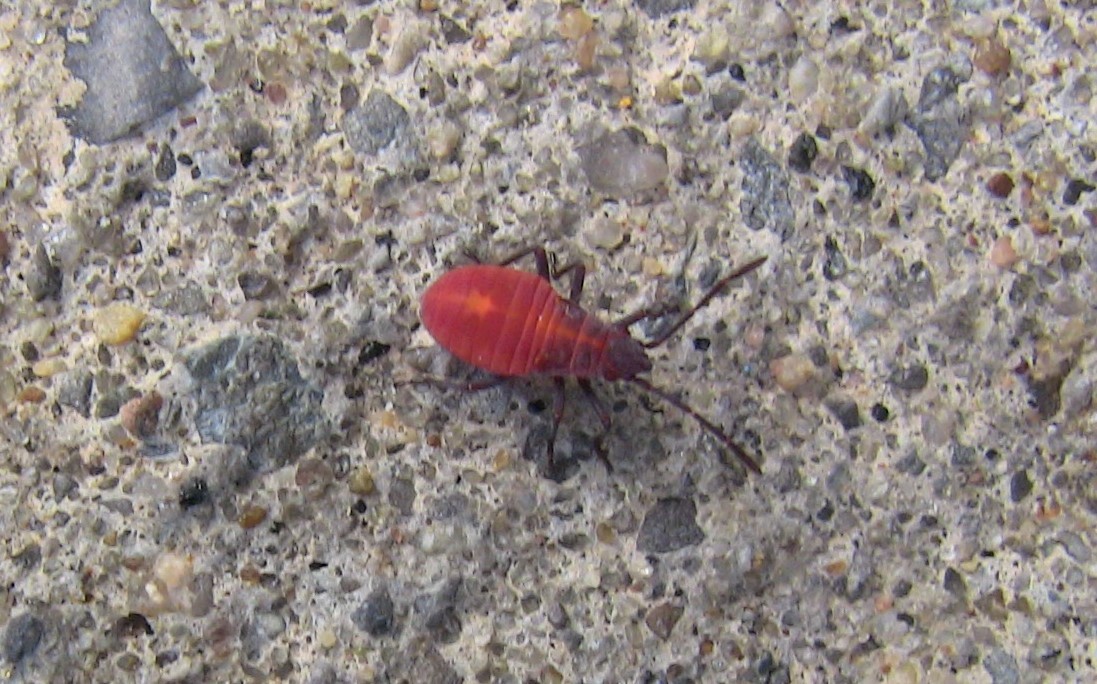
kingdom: Animalia
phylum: Arthropoda
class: Insecta
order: Hemiptera
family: Rhopalidae
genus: Boisea
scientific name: Boisea trivittata
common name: Boxelder bug
